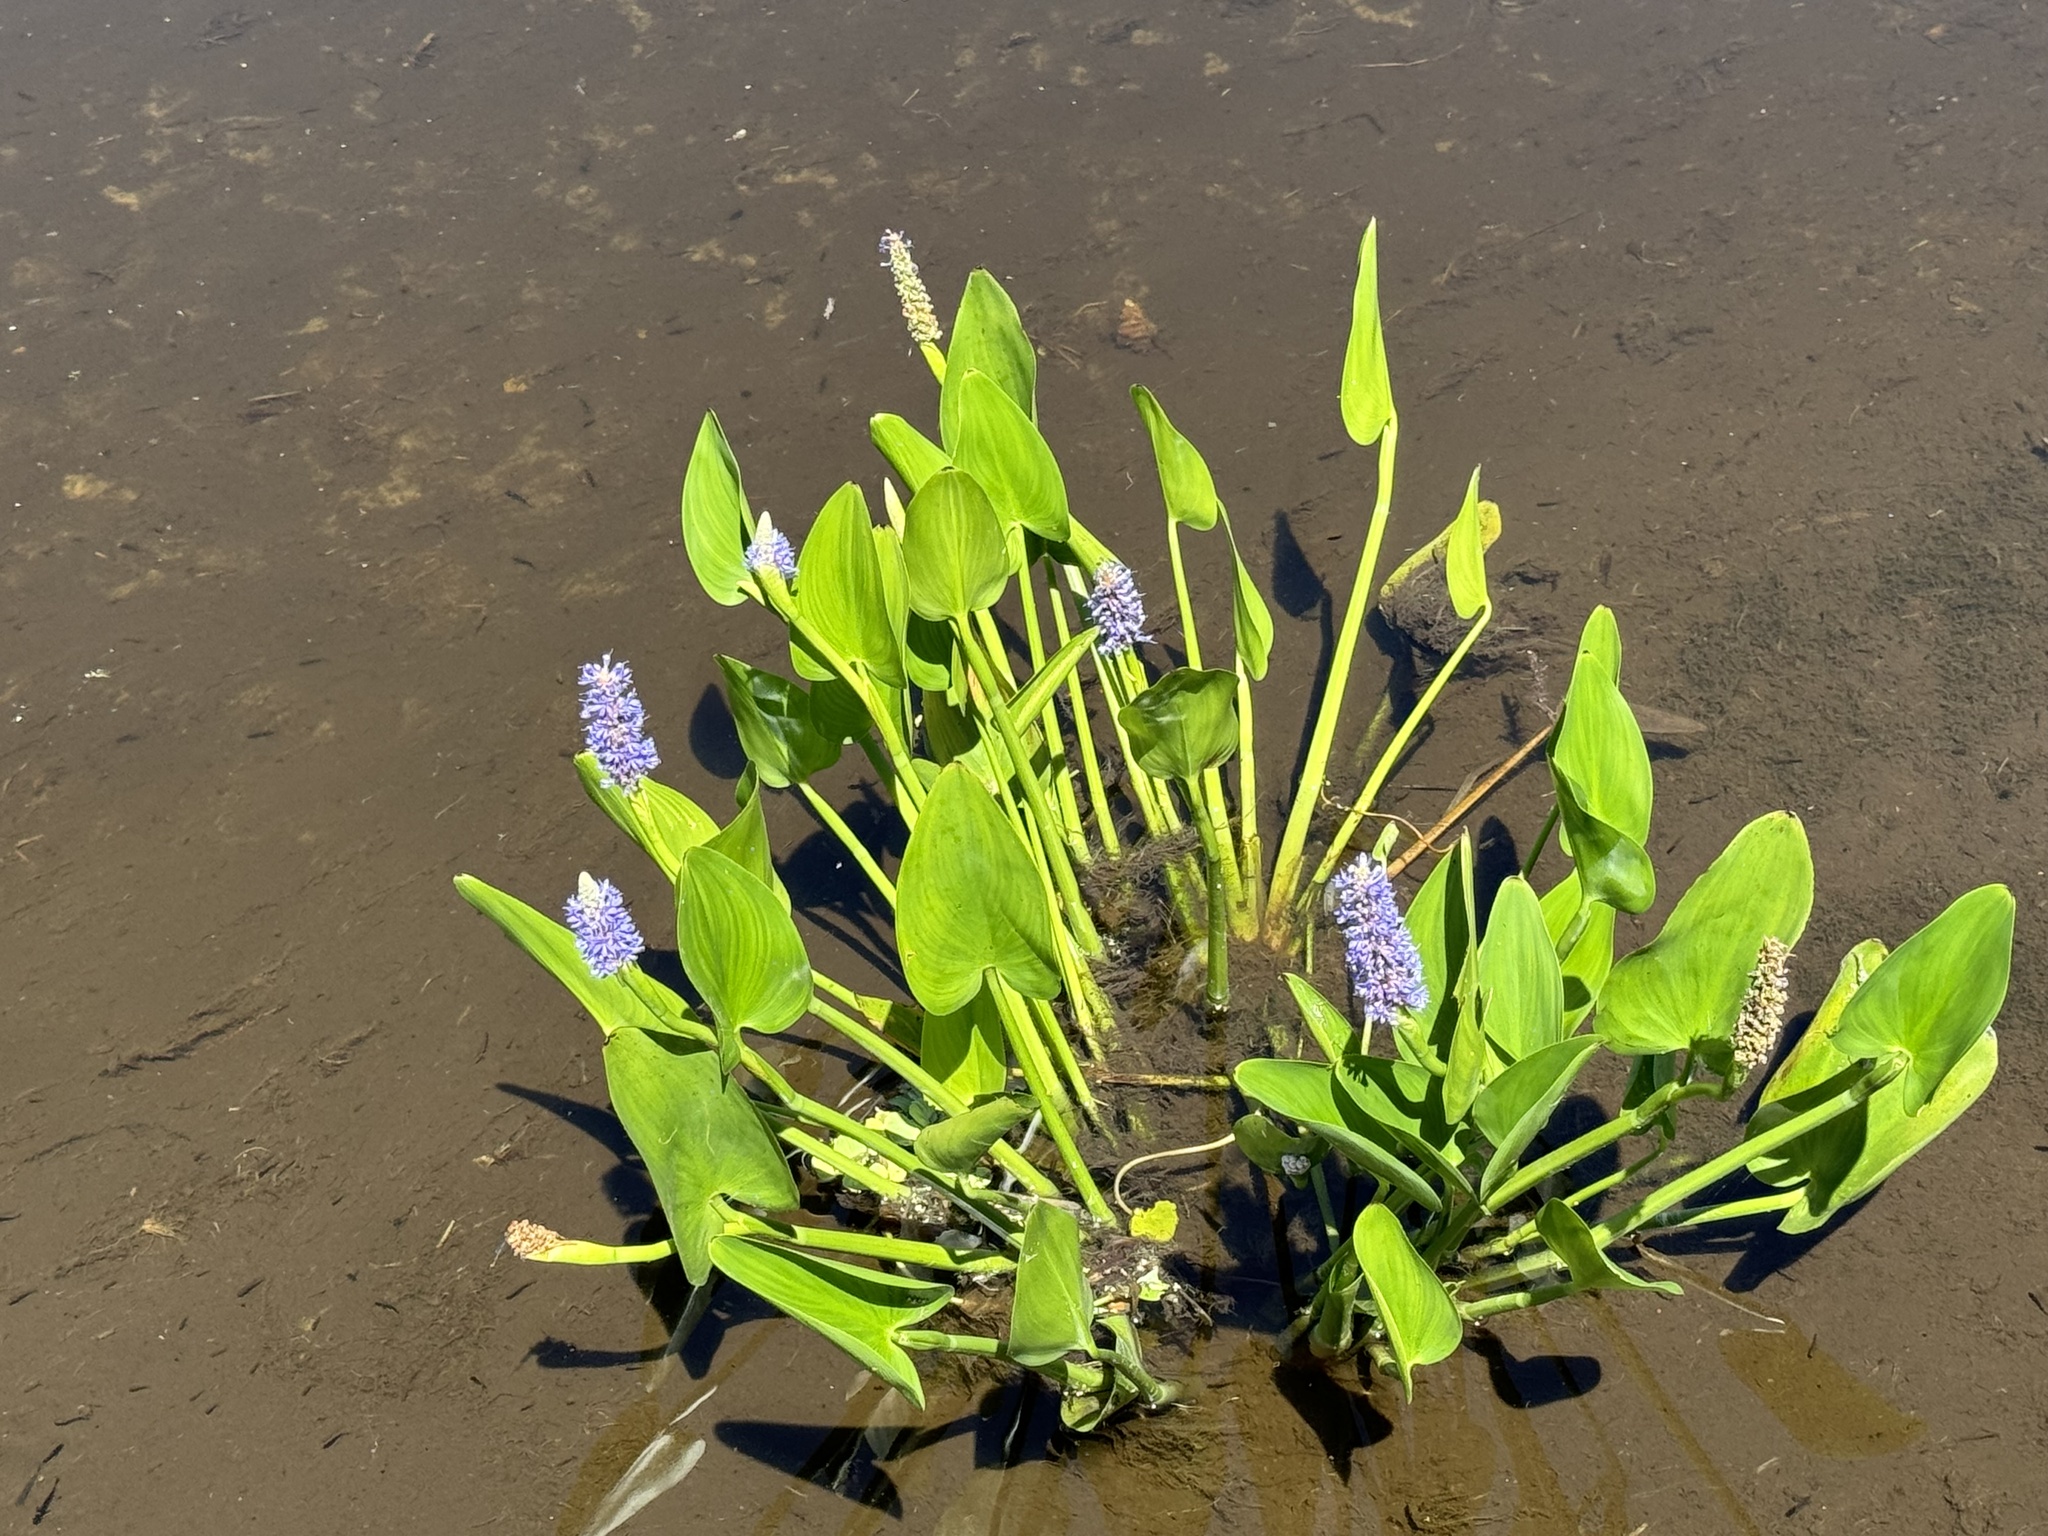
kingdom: Plantae
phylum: Tracheophyta
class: Liliopsida
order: Commelinales
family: Pontederiaceae
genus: Pontederia
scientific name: Pontederia cordata
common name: Pickerelweed
